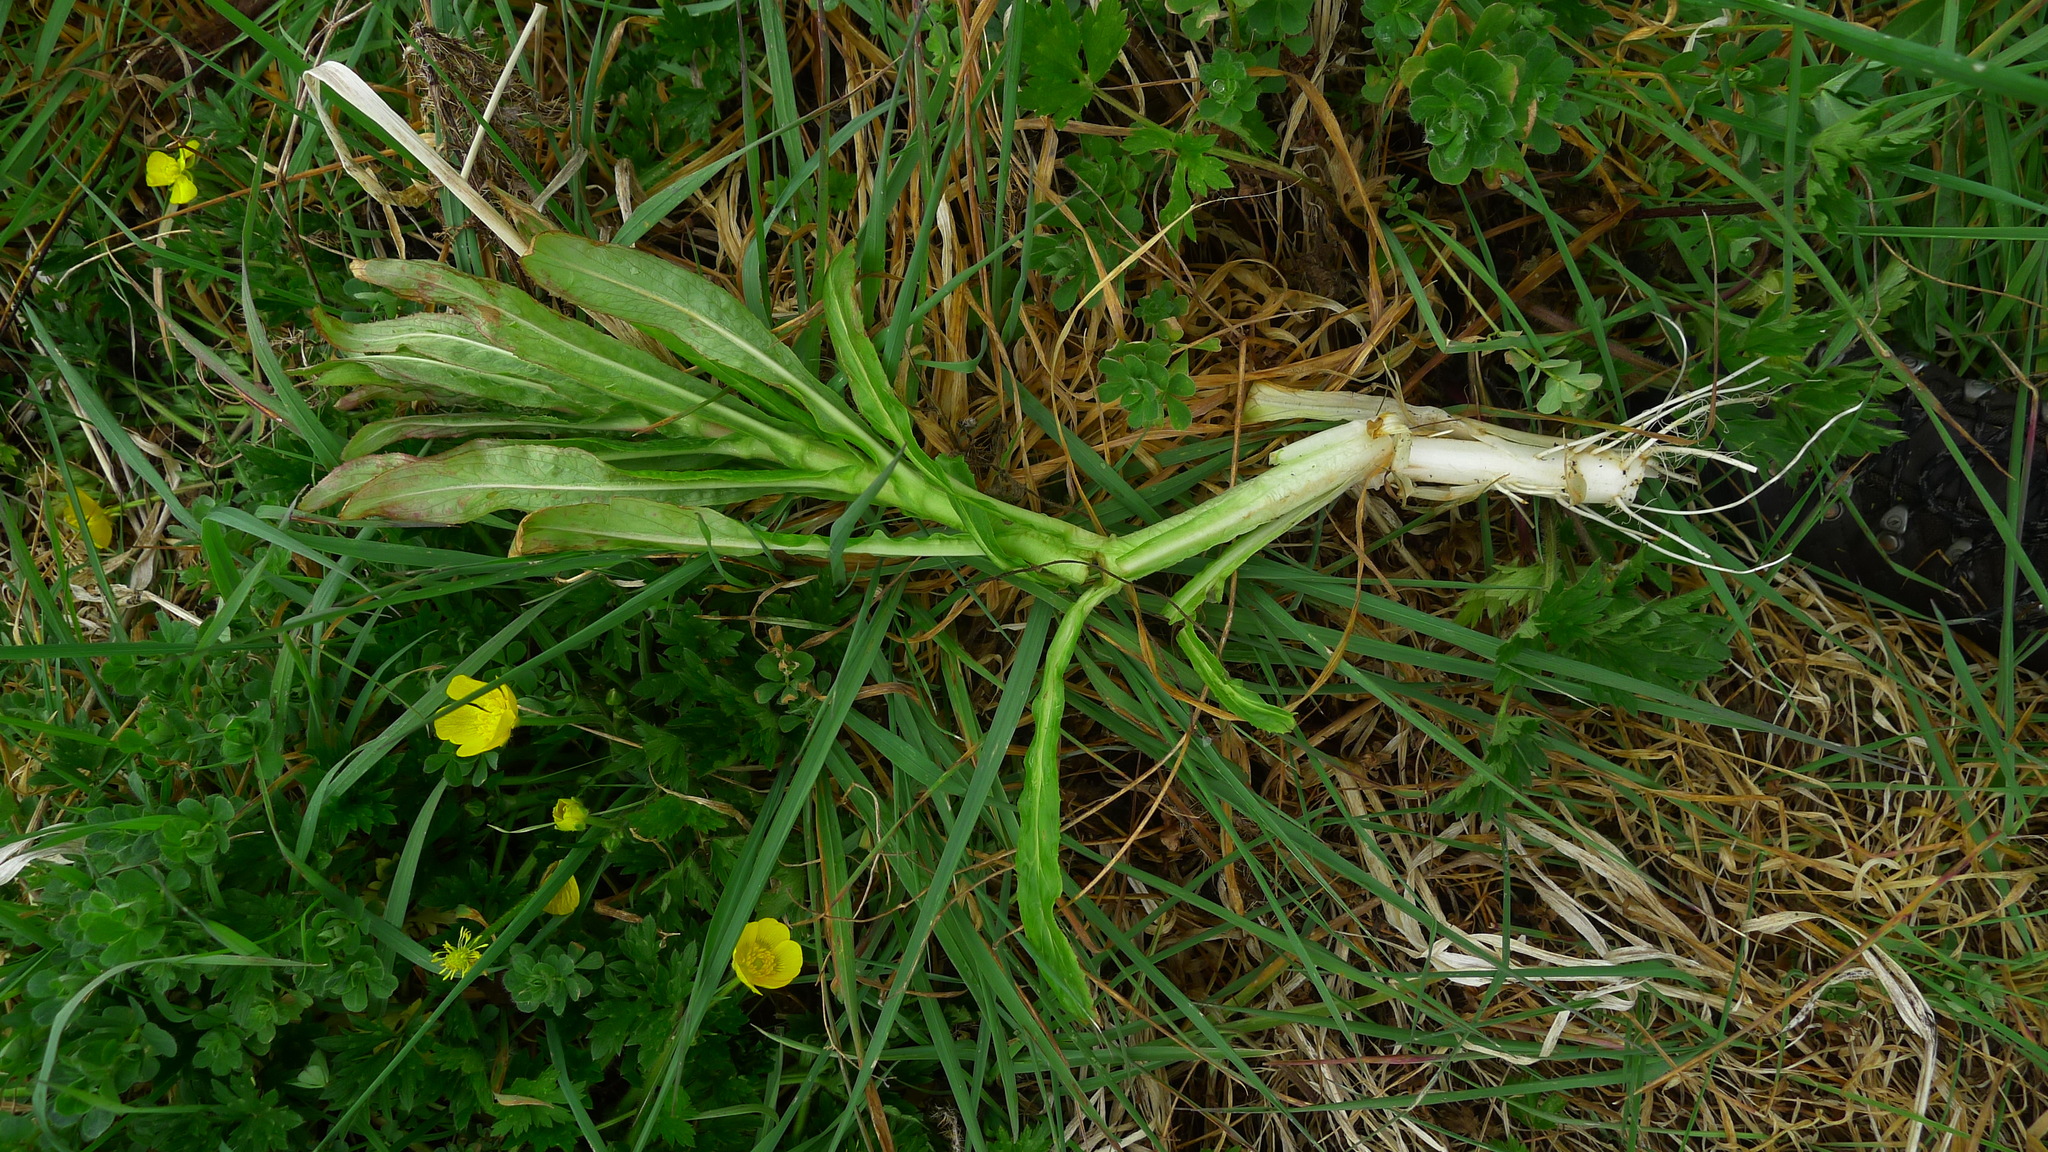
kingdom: Plantae
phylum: Tracheophyta
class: Magnoliopsida
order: Myrtales
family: Onagraceae
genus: Epilobium
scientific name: Epilobium hirsutum
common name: Great willowherb
